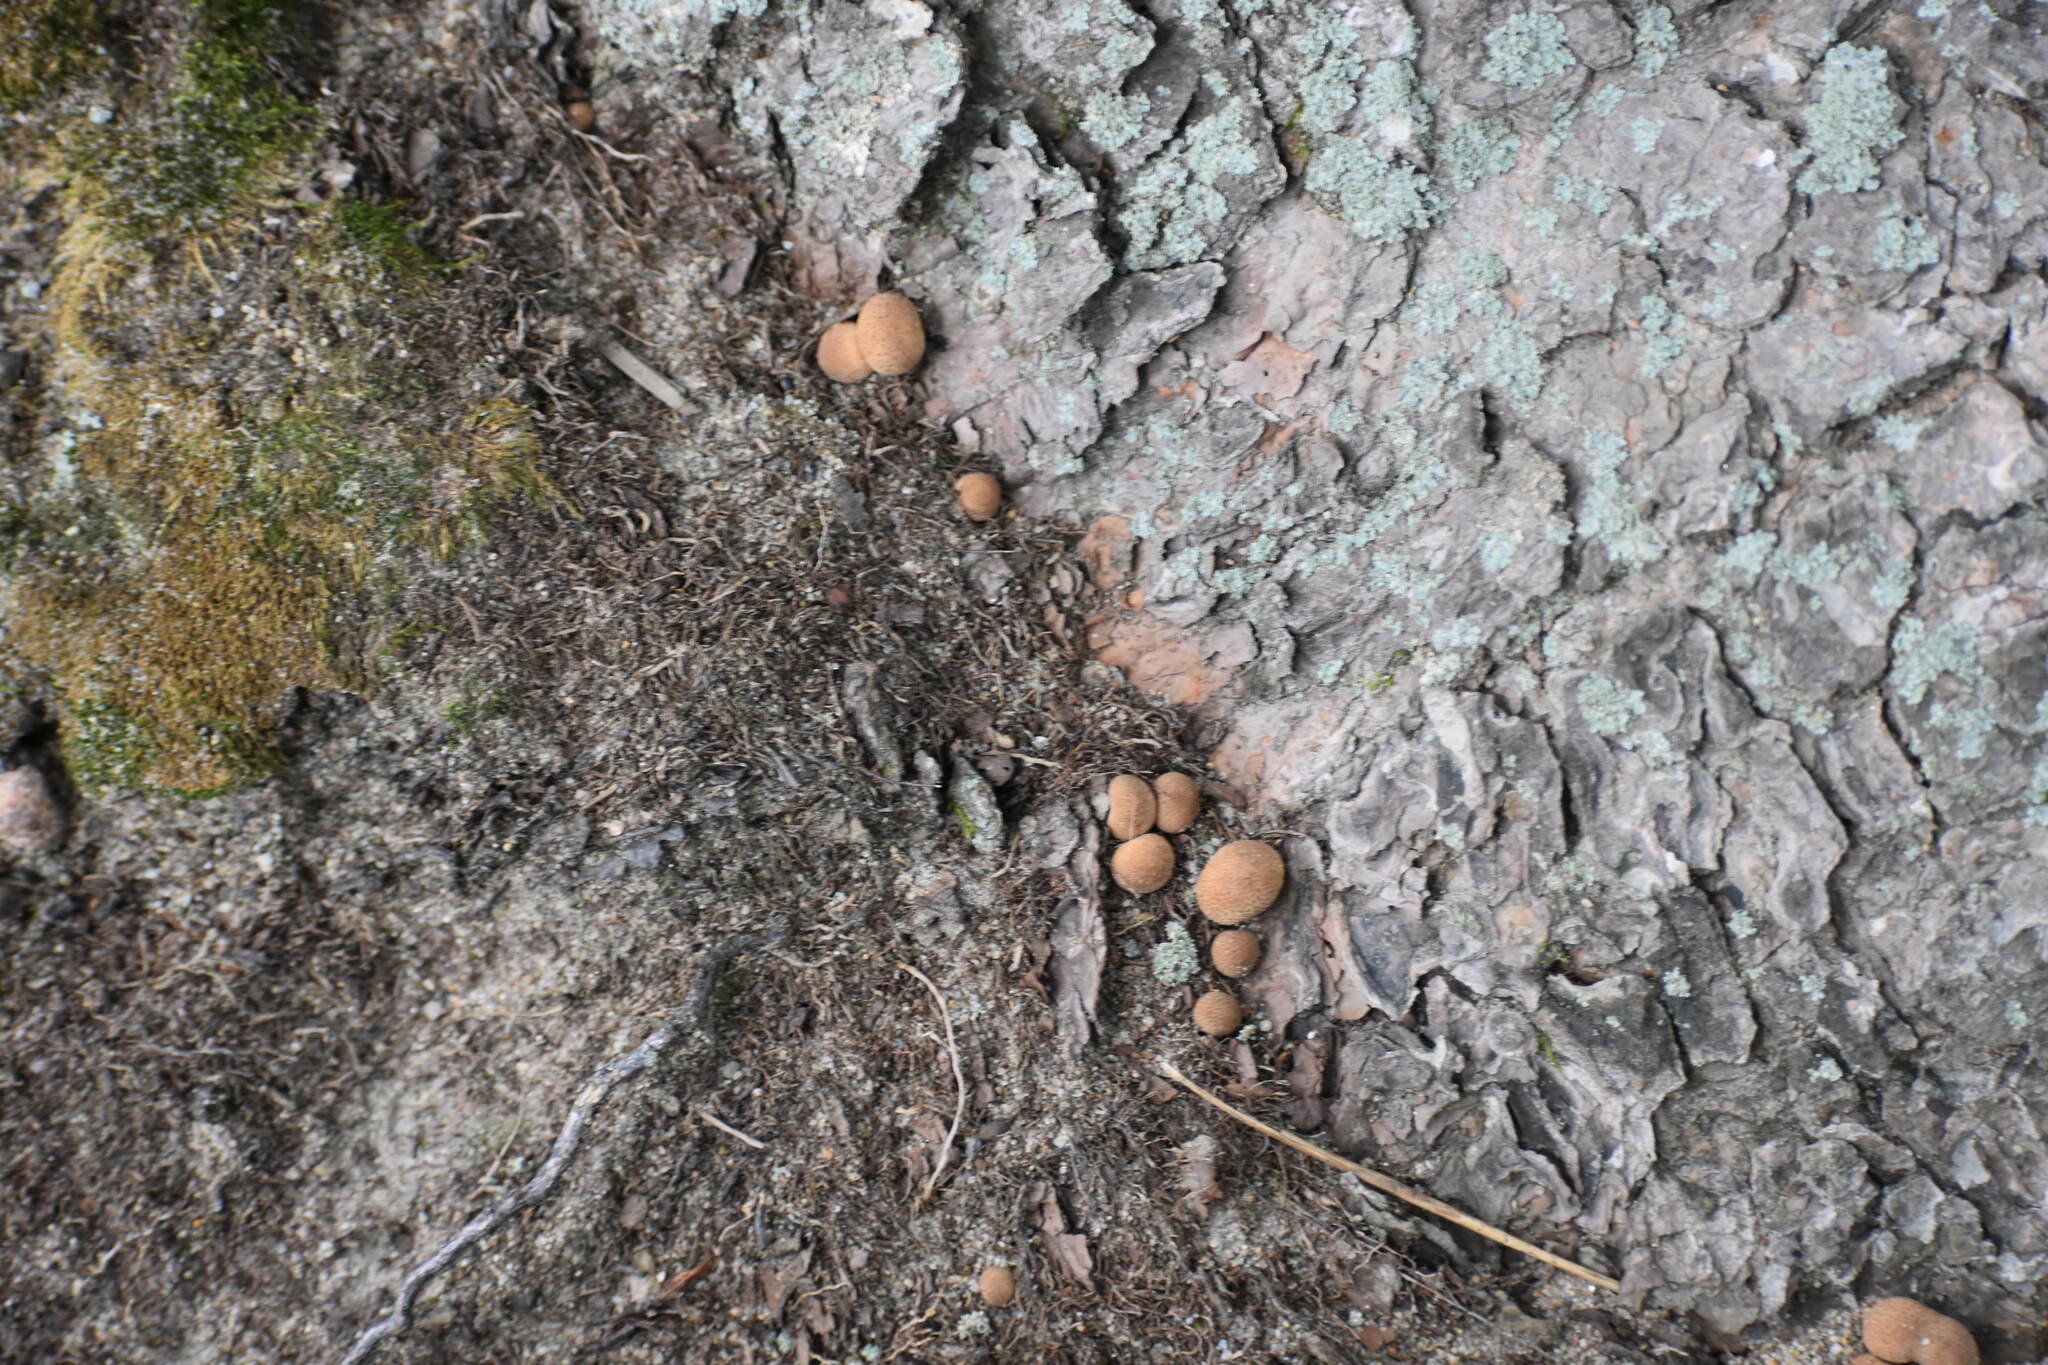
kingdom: Fungi
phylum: Basidiomycota
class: Agaricomycetes
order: Agaricales
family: Lycoperdaceae
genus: Apioperdon
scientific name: Apioperdon pyriforme
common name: Pear-shaped puffball
